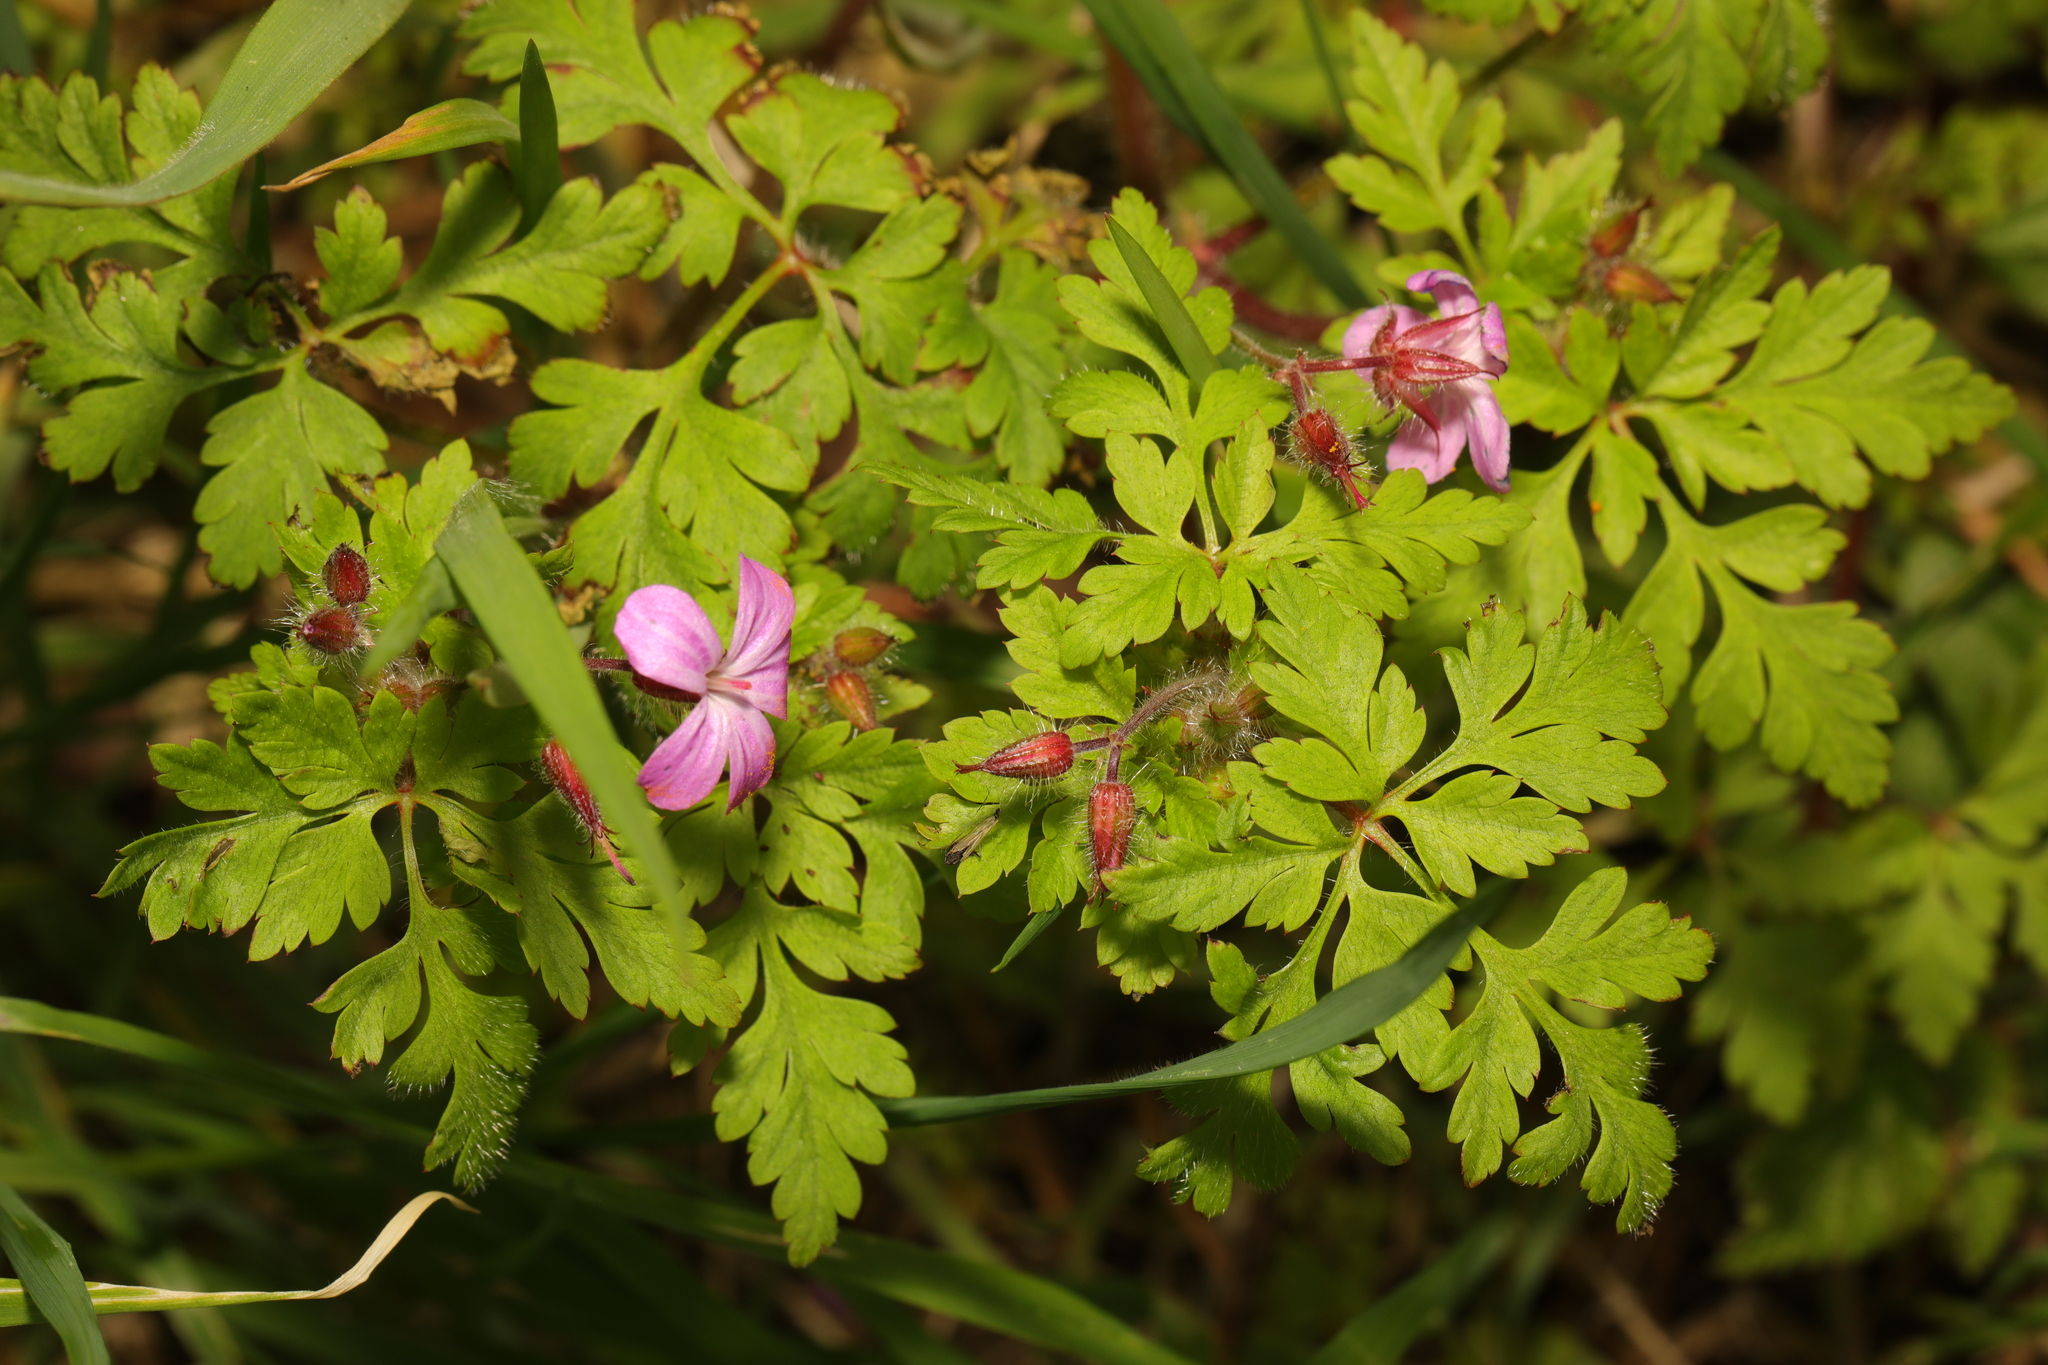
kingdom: Plantae
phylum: Tracheophyta
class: Magnoliopsida
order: Geraniales
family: Geraniaceae
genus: Geranium
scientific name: Geranium robertianum
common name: Herb-robert
